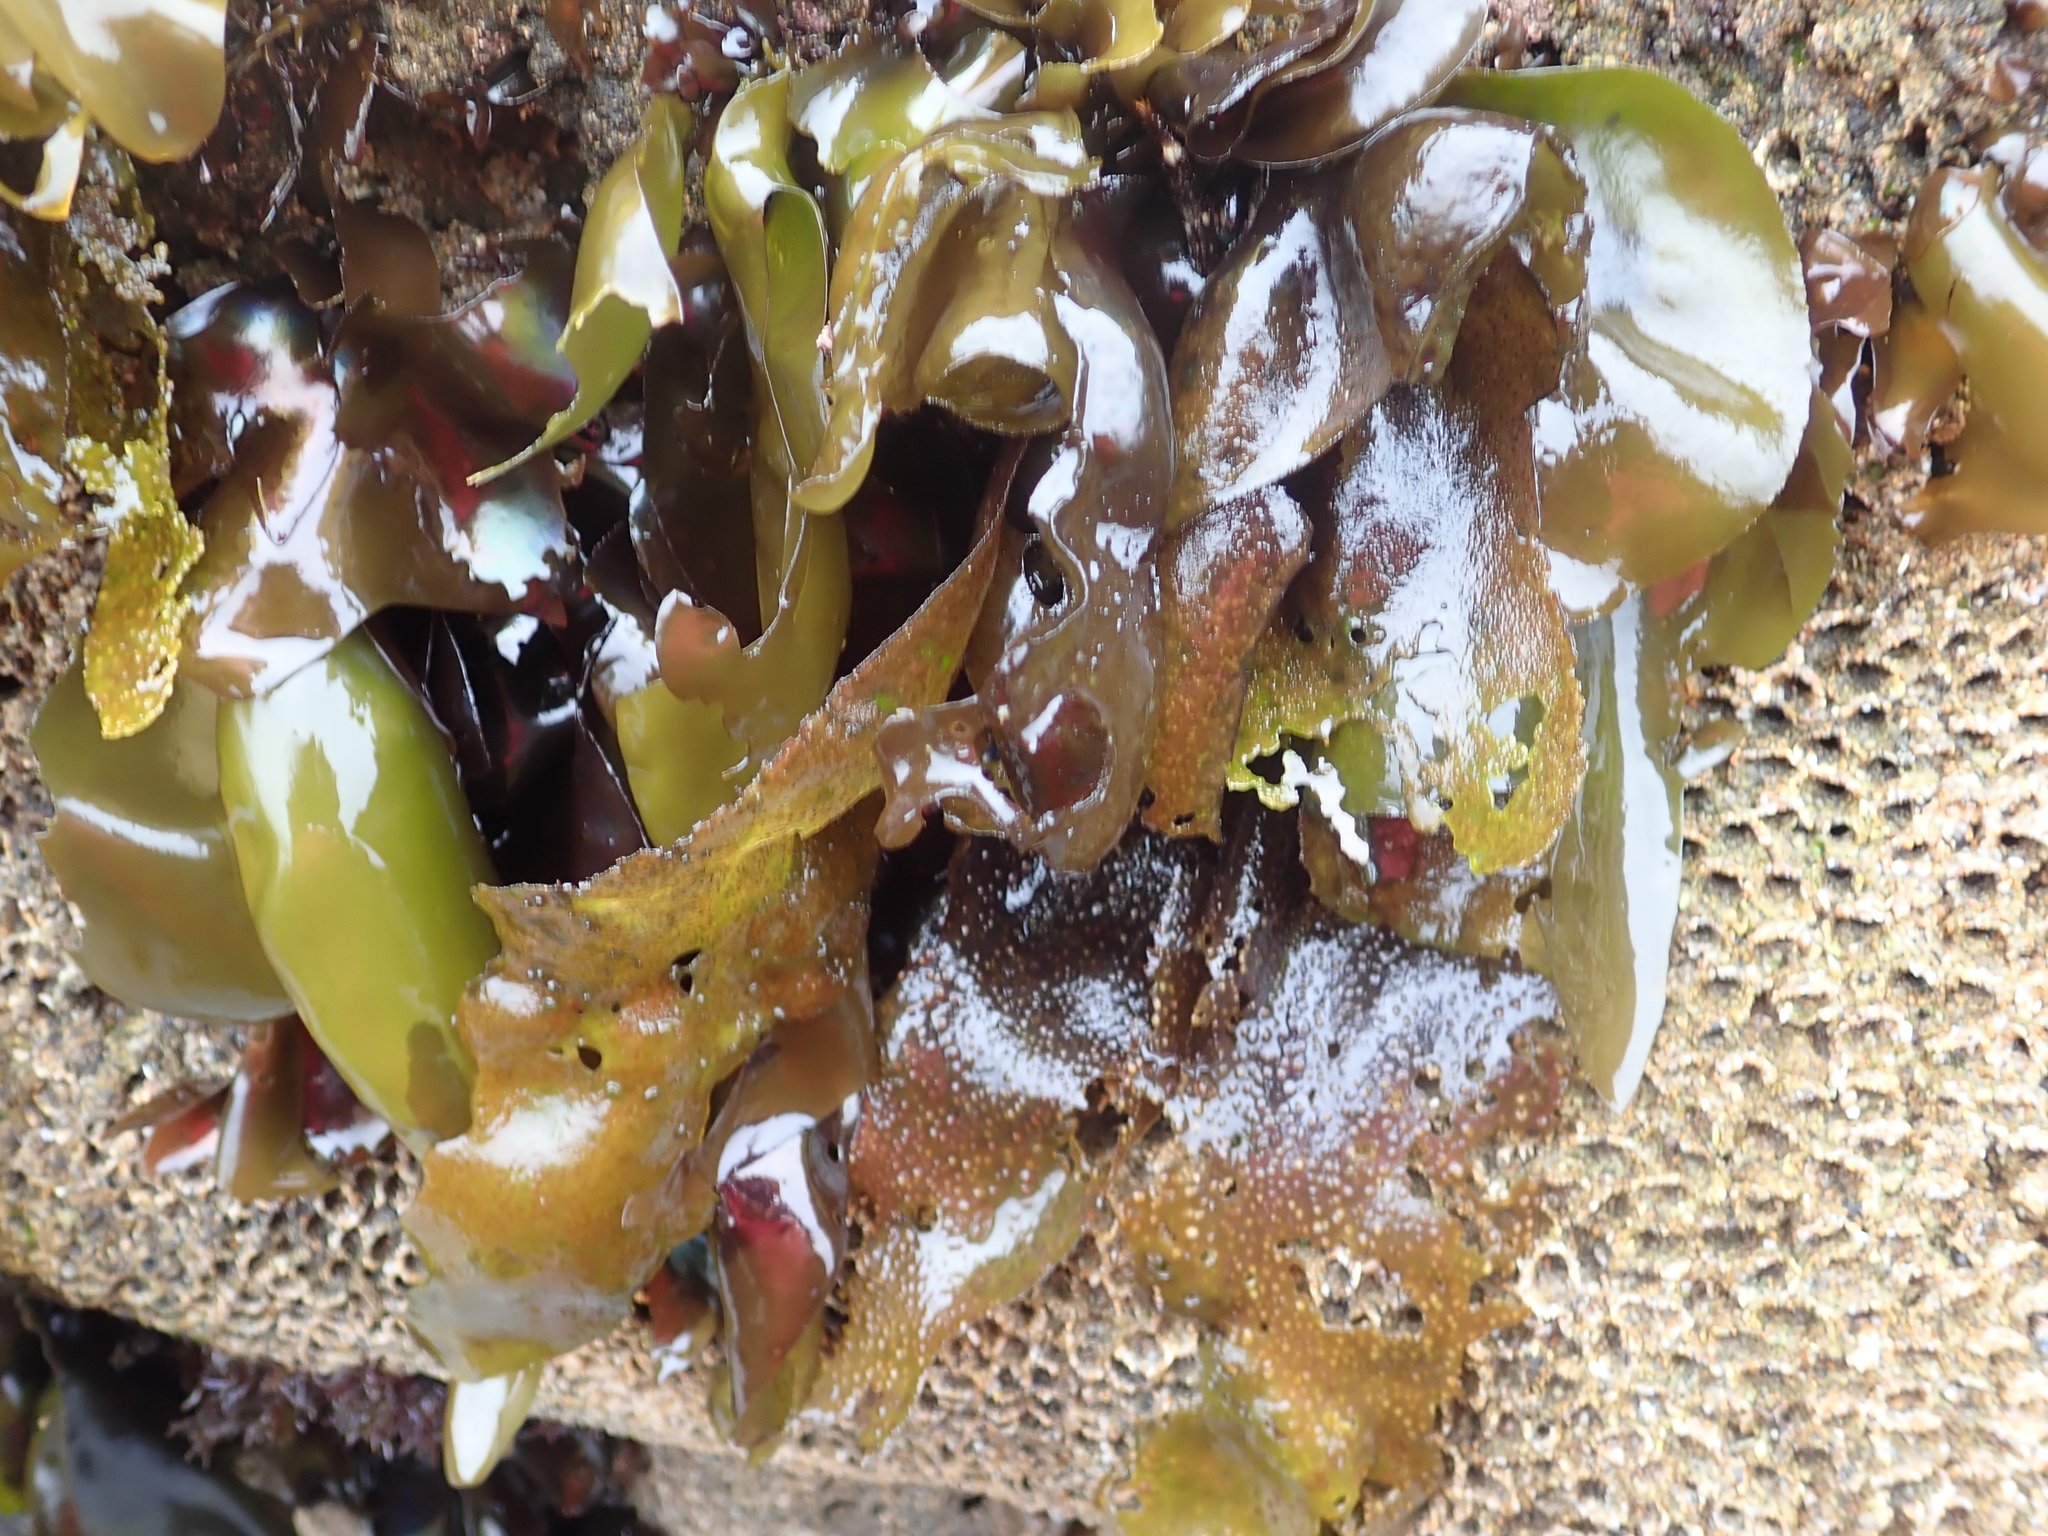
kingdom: Plantae
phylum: Rhodophyta
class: Florideophyceae
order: Gigartinales
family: Gigartinaceae
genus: Mazzaella
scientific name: Mazzaella flaccida
